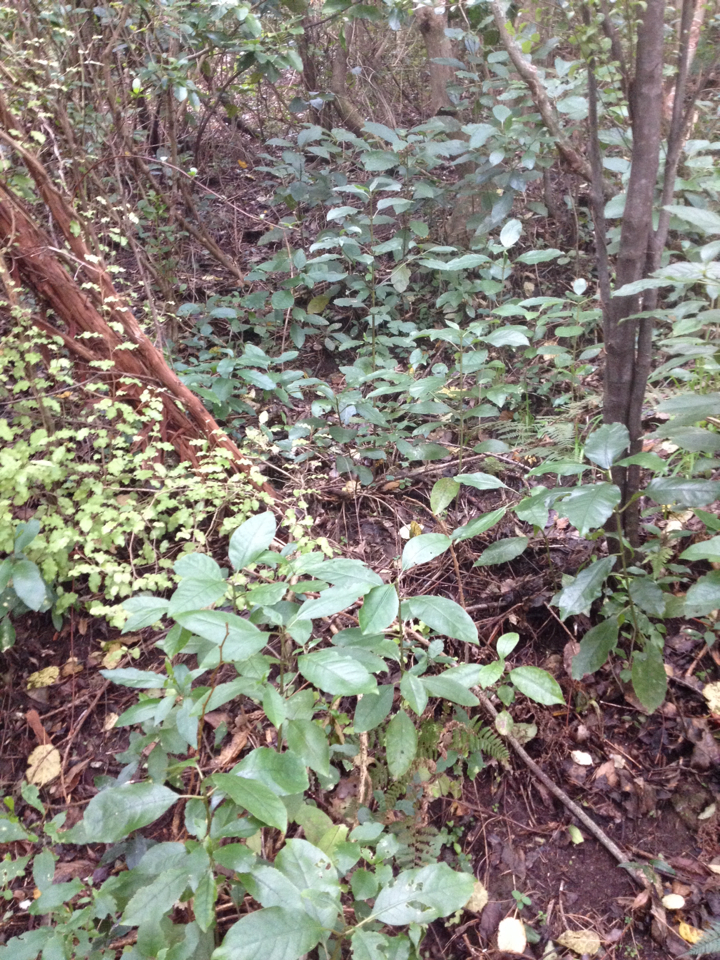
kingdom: Plantae
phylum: Tracheophyta
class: Magnoliopsida
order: Gentianales
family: Rubiaceae
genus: Coprosma
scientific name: Coprosma autumnalis
